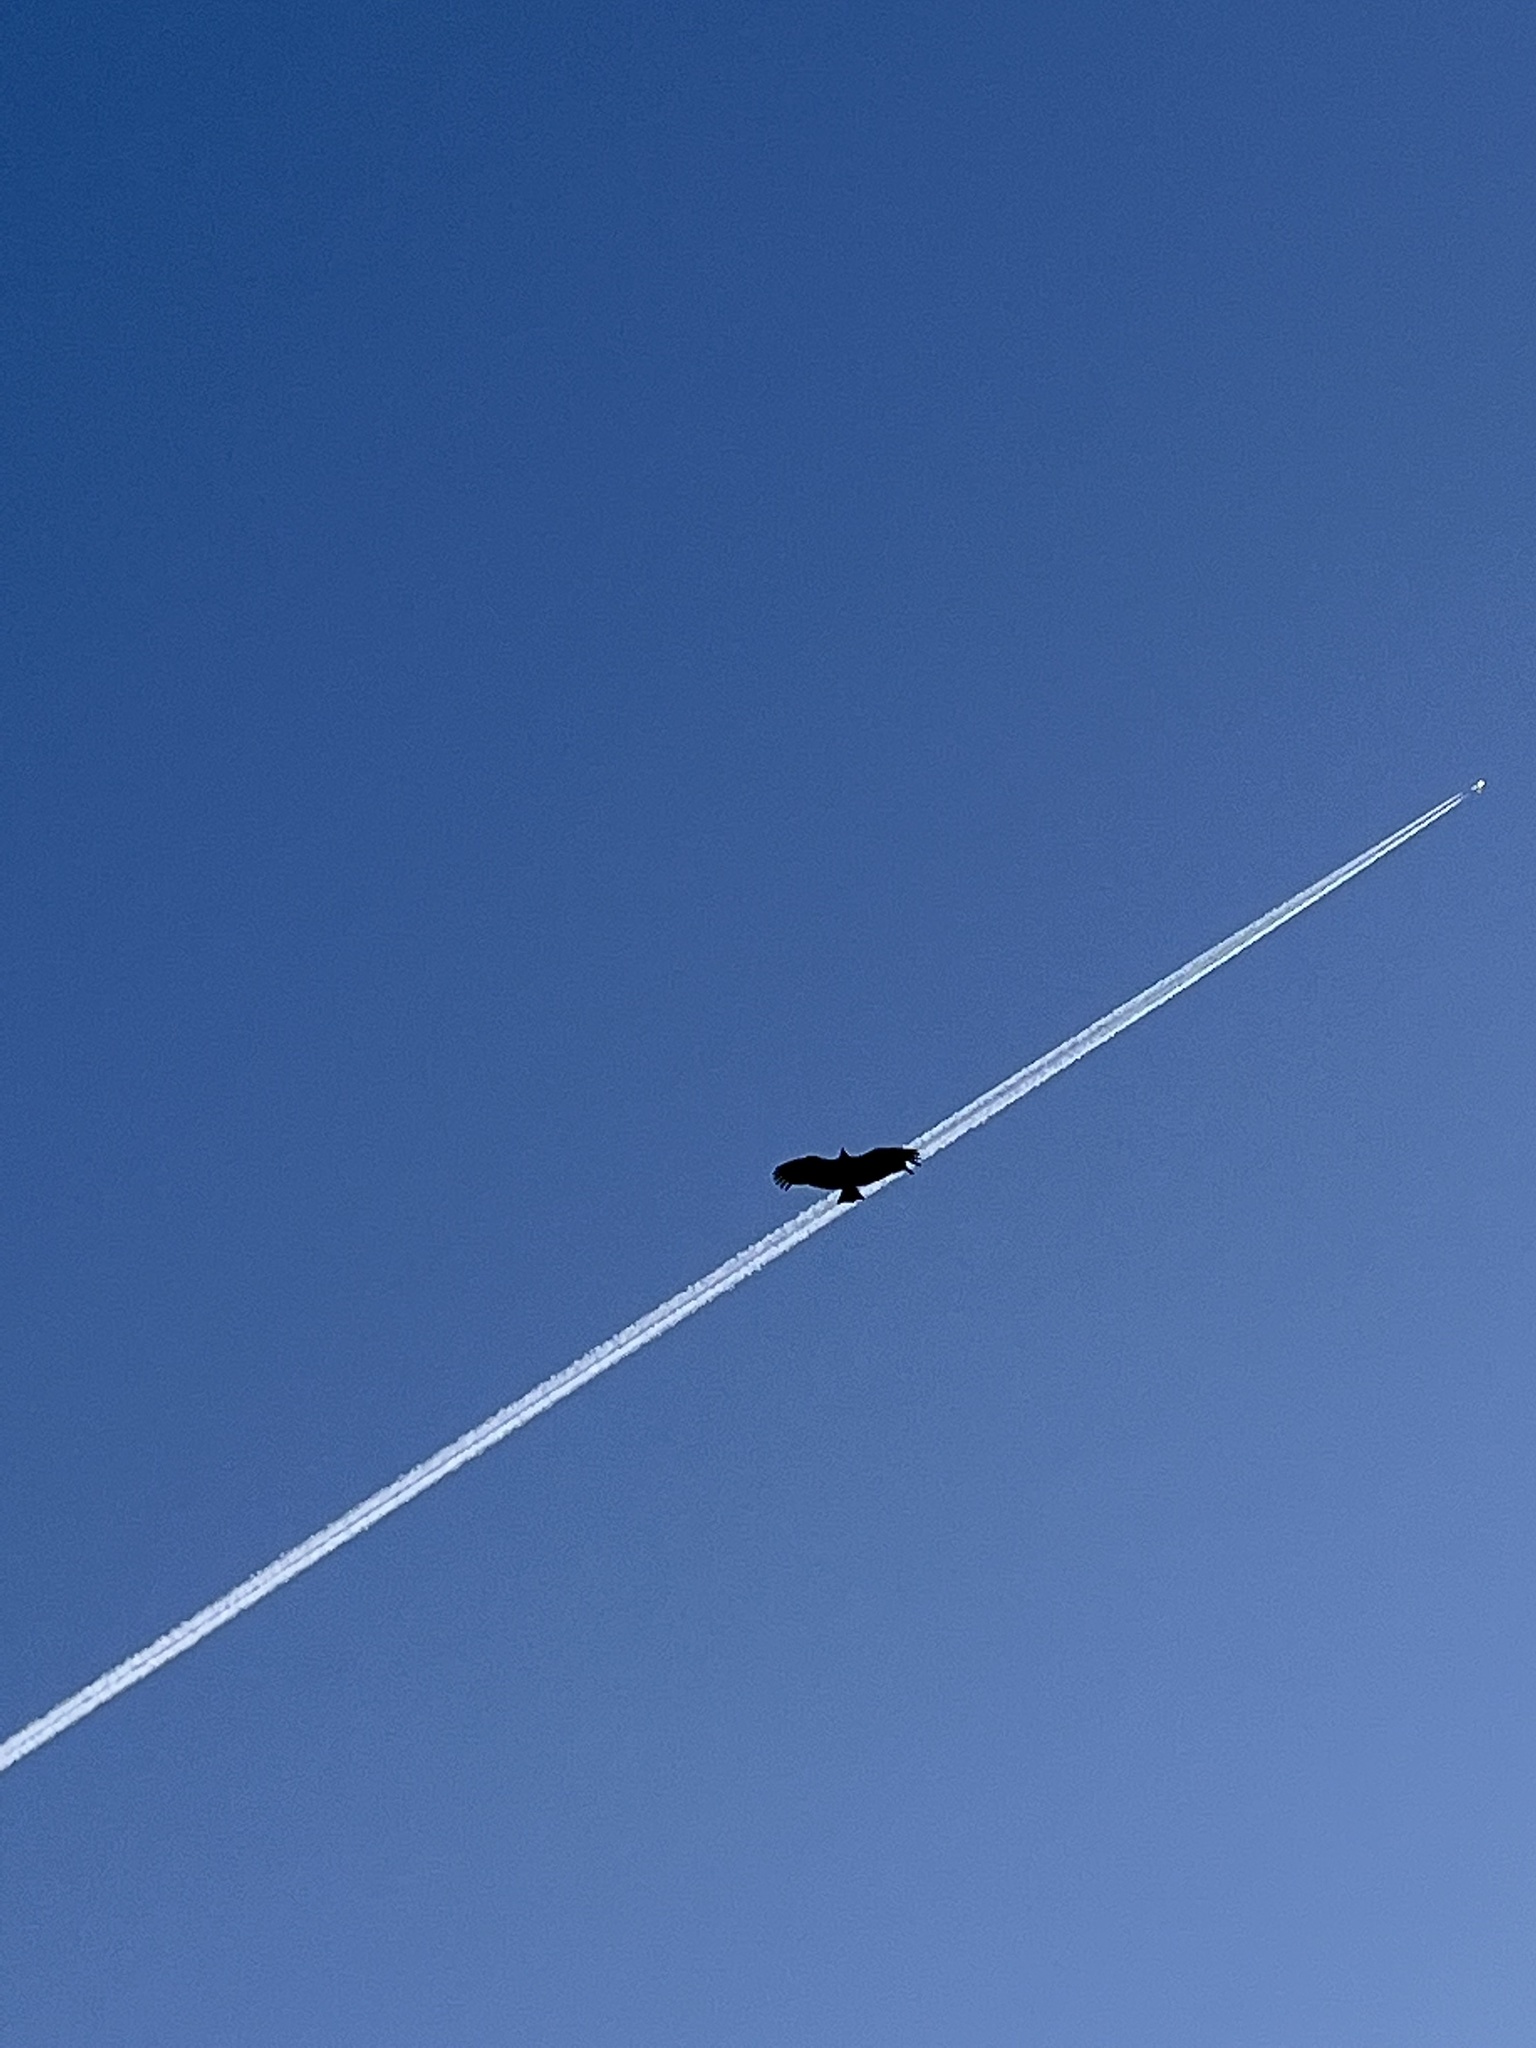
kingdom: Animalia
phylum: Chordata
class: Aves
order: Accipitriformes
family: Cathartidae
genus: Coragyps
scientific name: Coragyps atratus
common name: Black vulture
